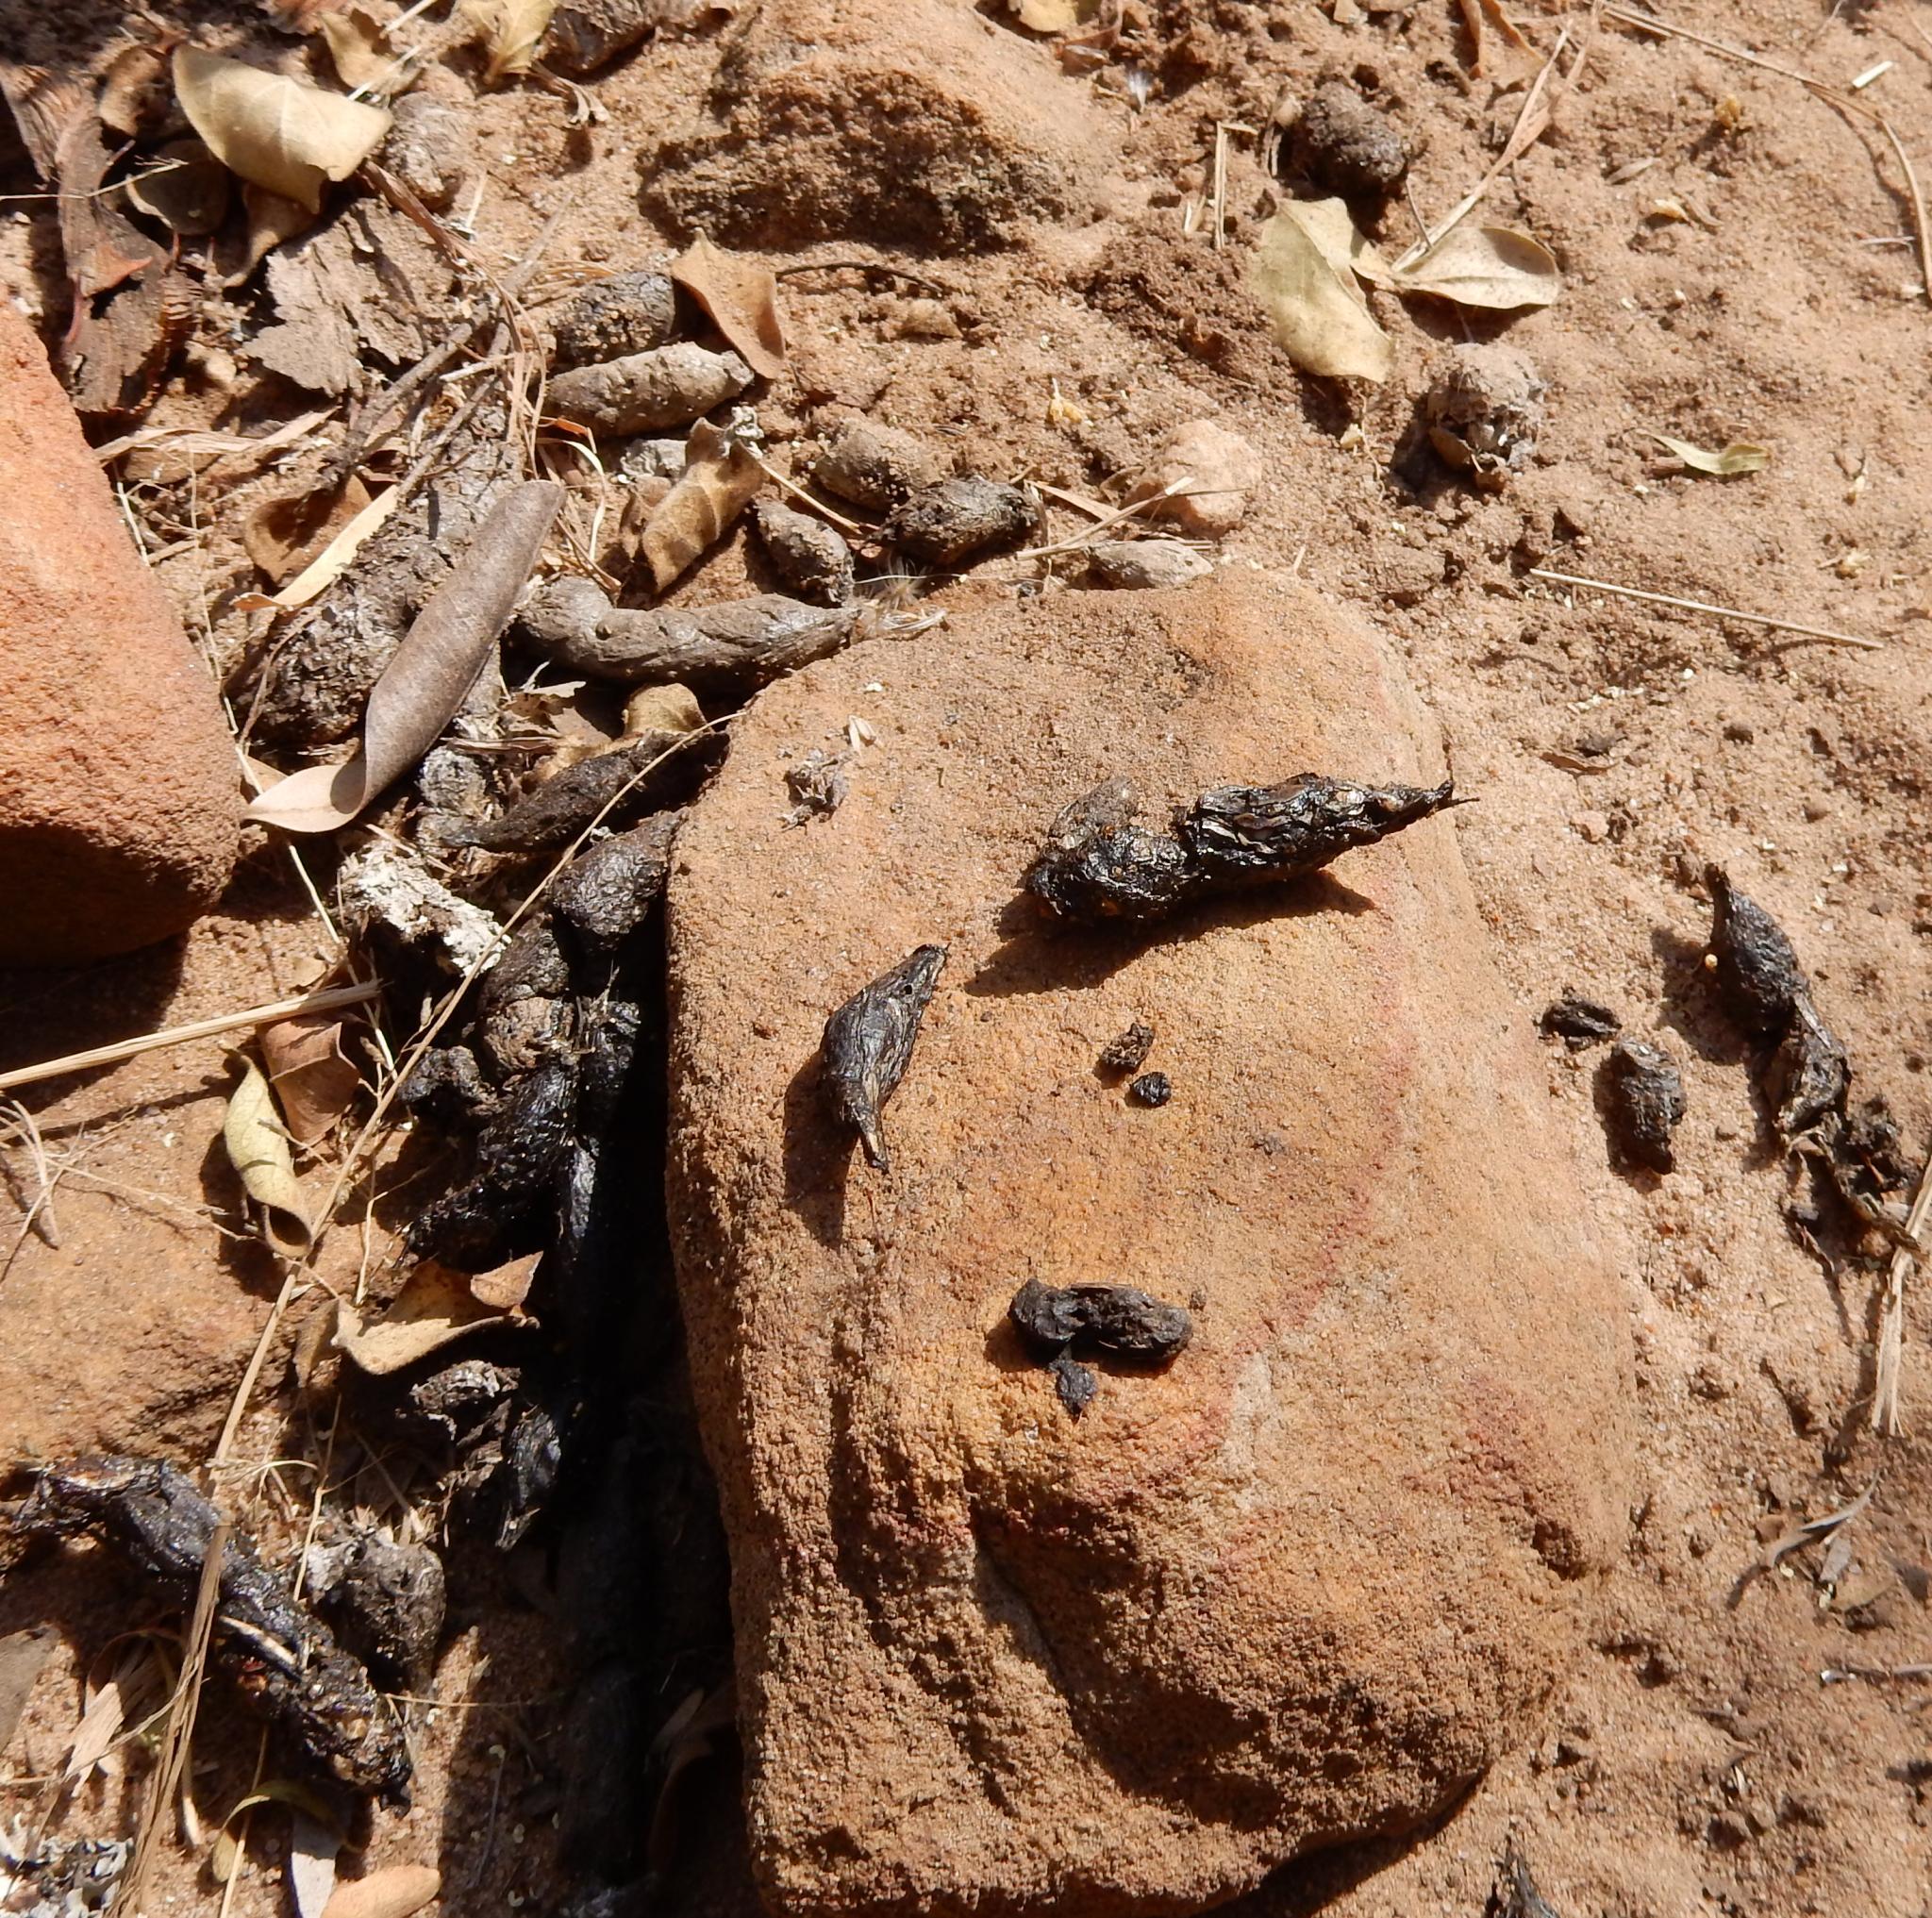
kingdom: Animalia
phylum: Chordata
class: Mammalia
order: Rodentia
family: Hystricidae
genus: Hystrix
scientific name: Hystrix africaeaustralis
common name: Cape porcupine
